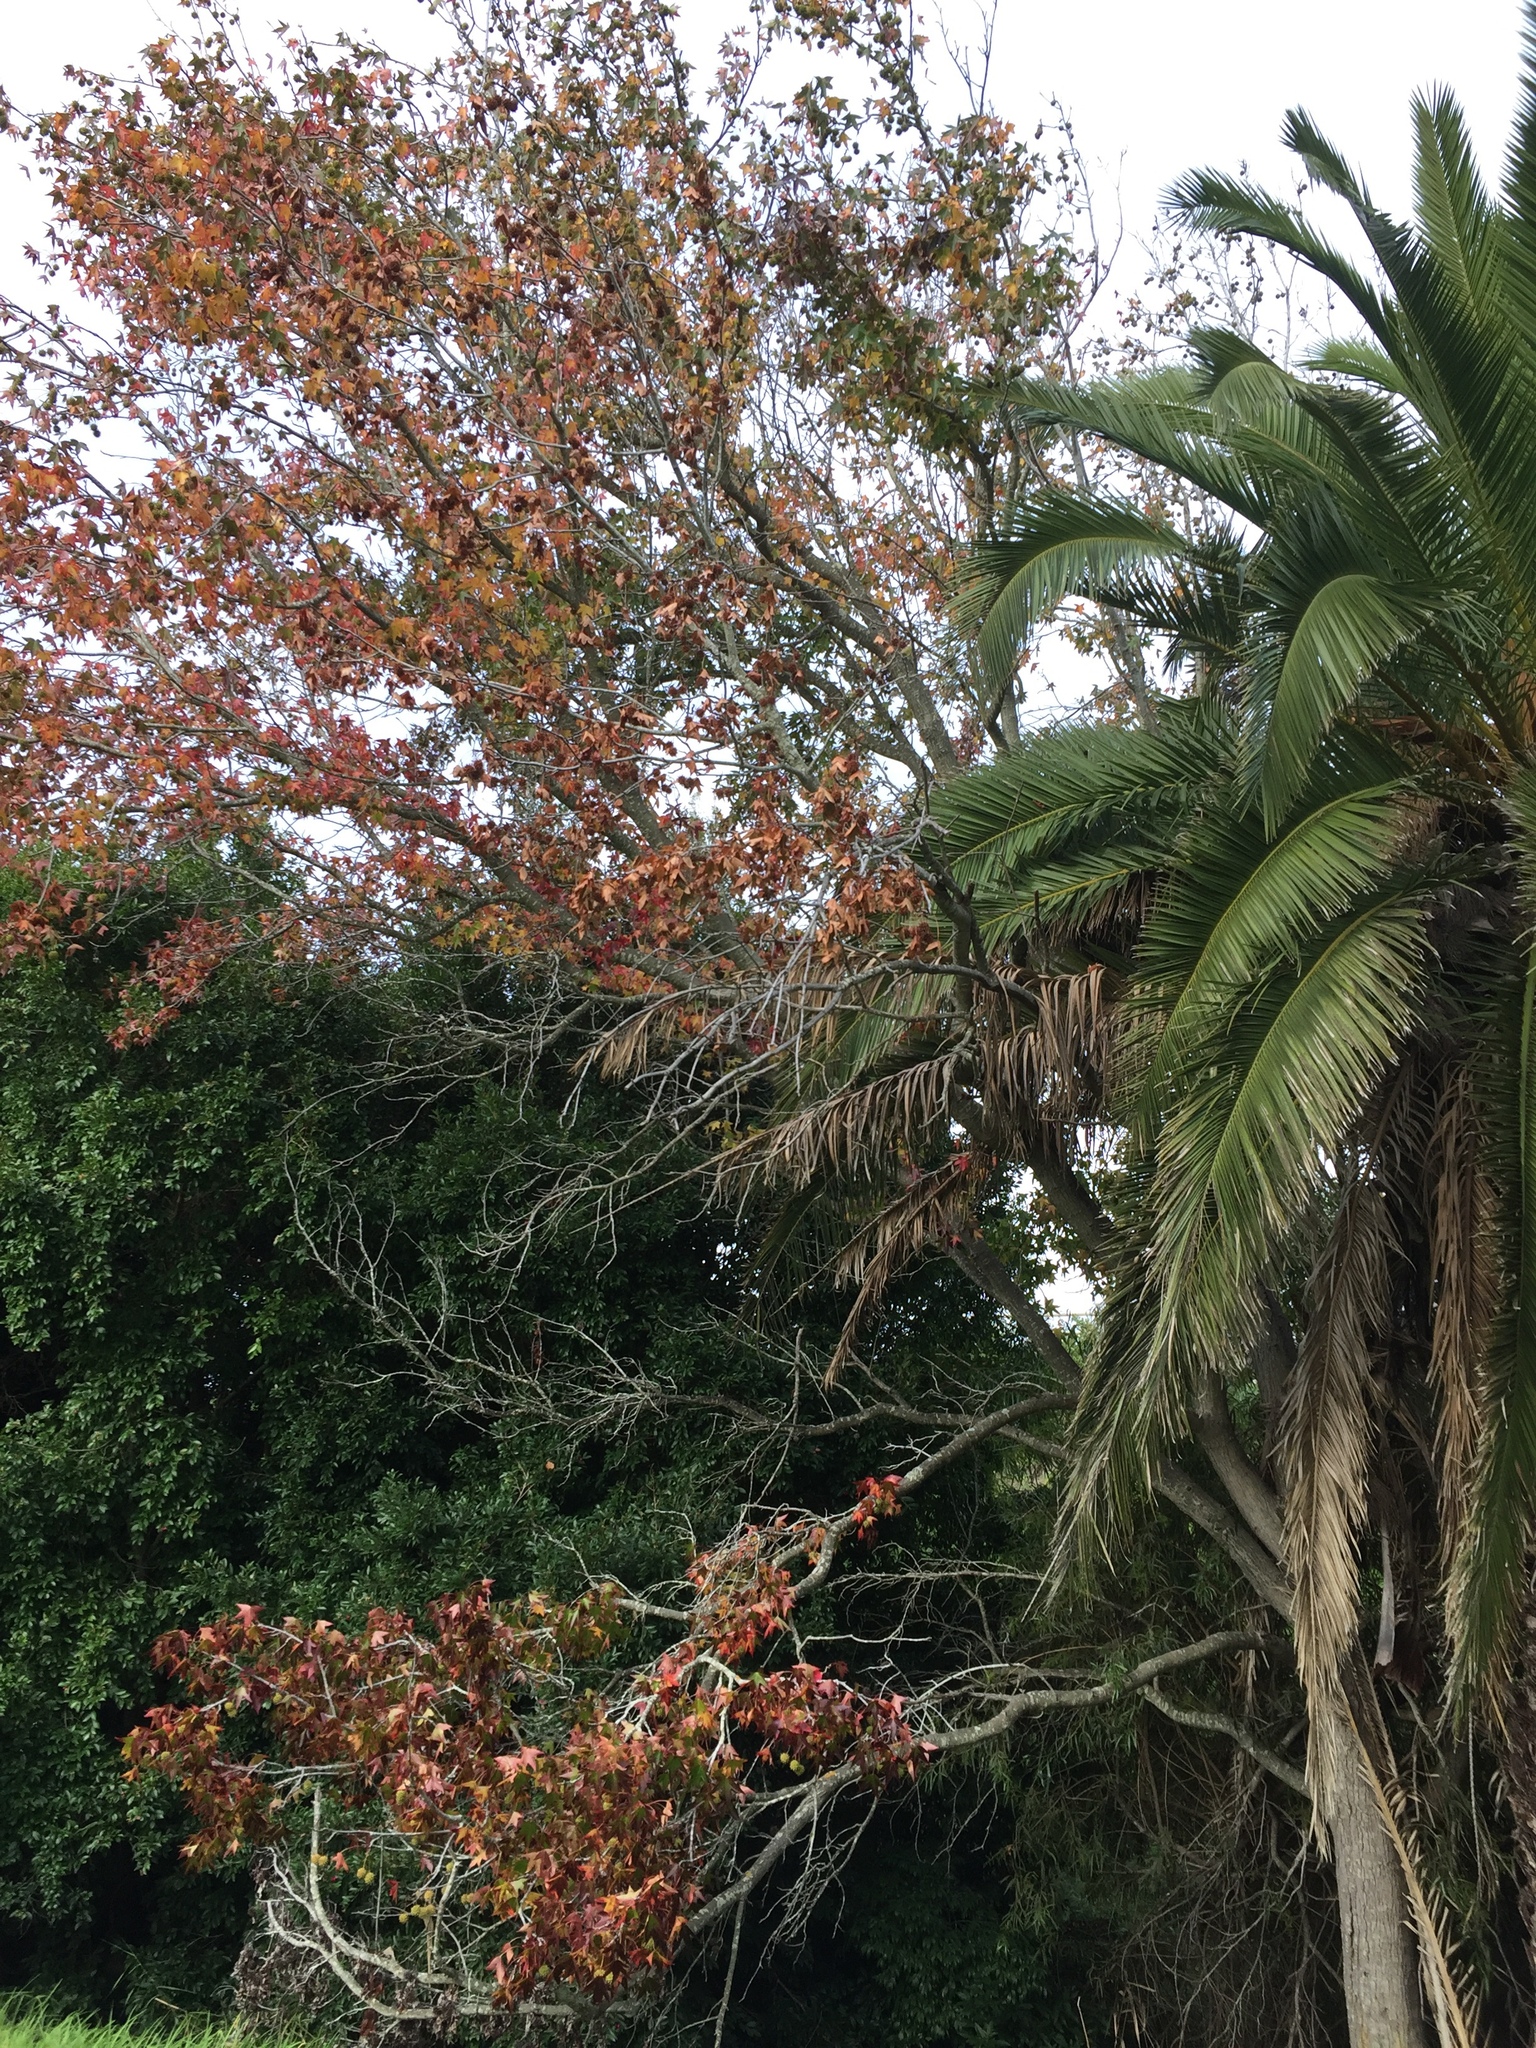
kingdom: Plantae
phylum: Tracheophyta
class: Magnoliopsida
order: Saxifragales
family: Altingiaceae
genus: Liquidambar
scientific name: Liquidambar styraciflua
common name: Sweet gum
